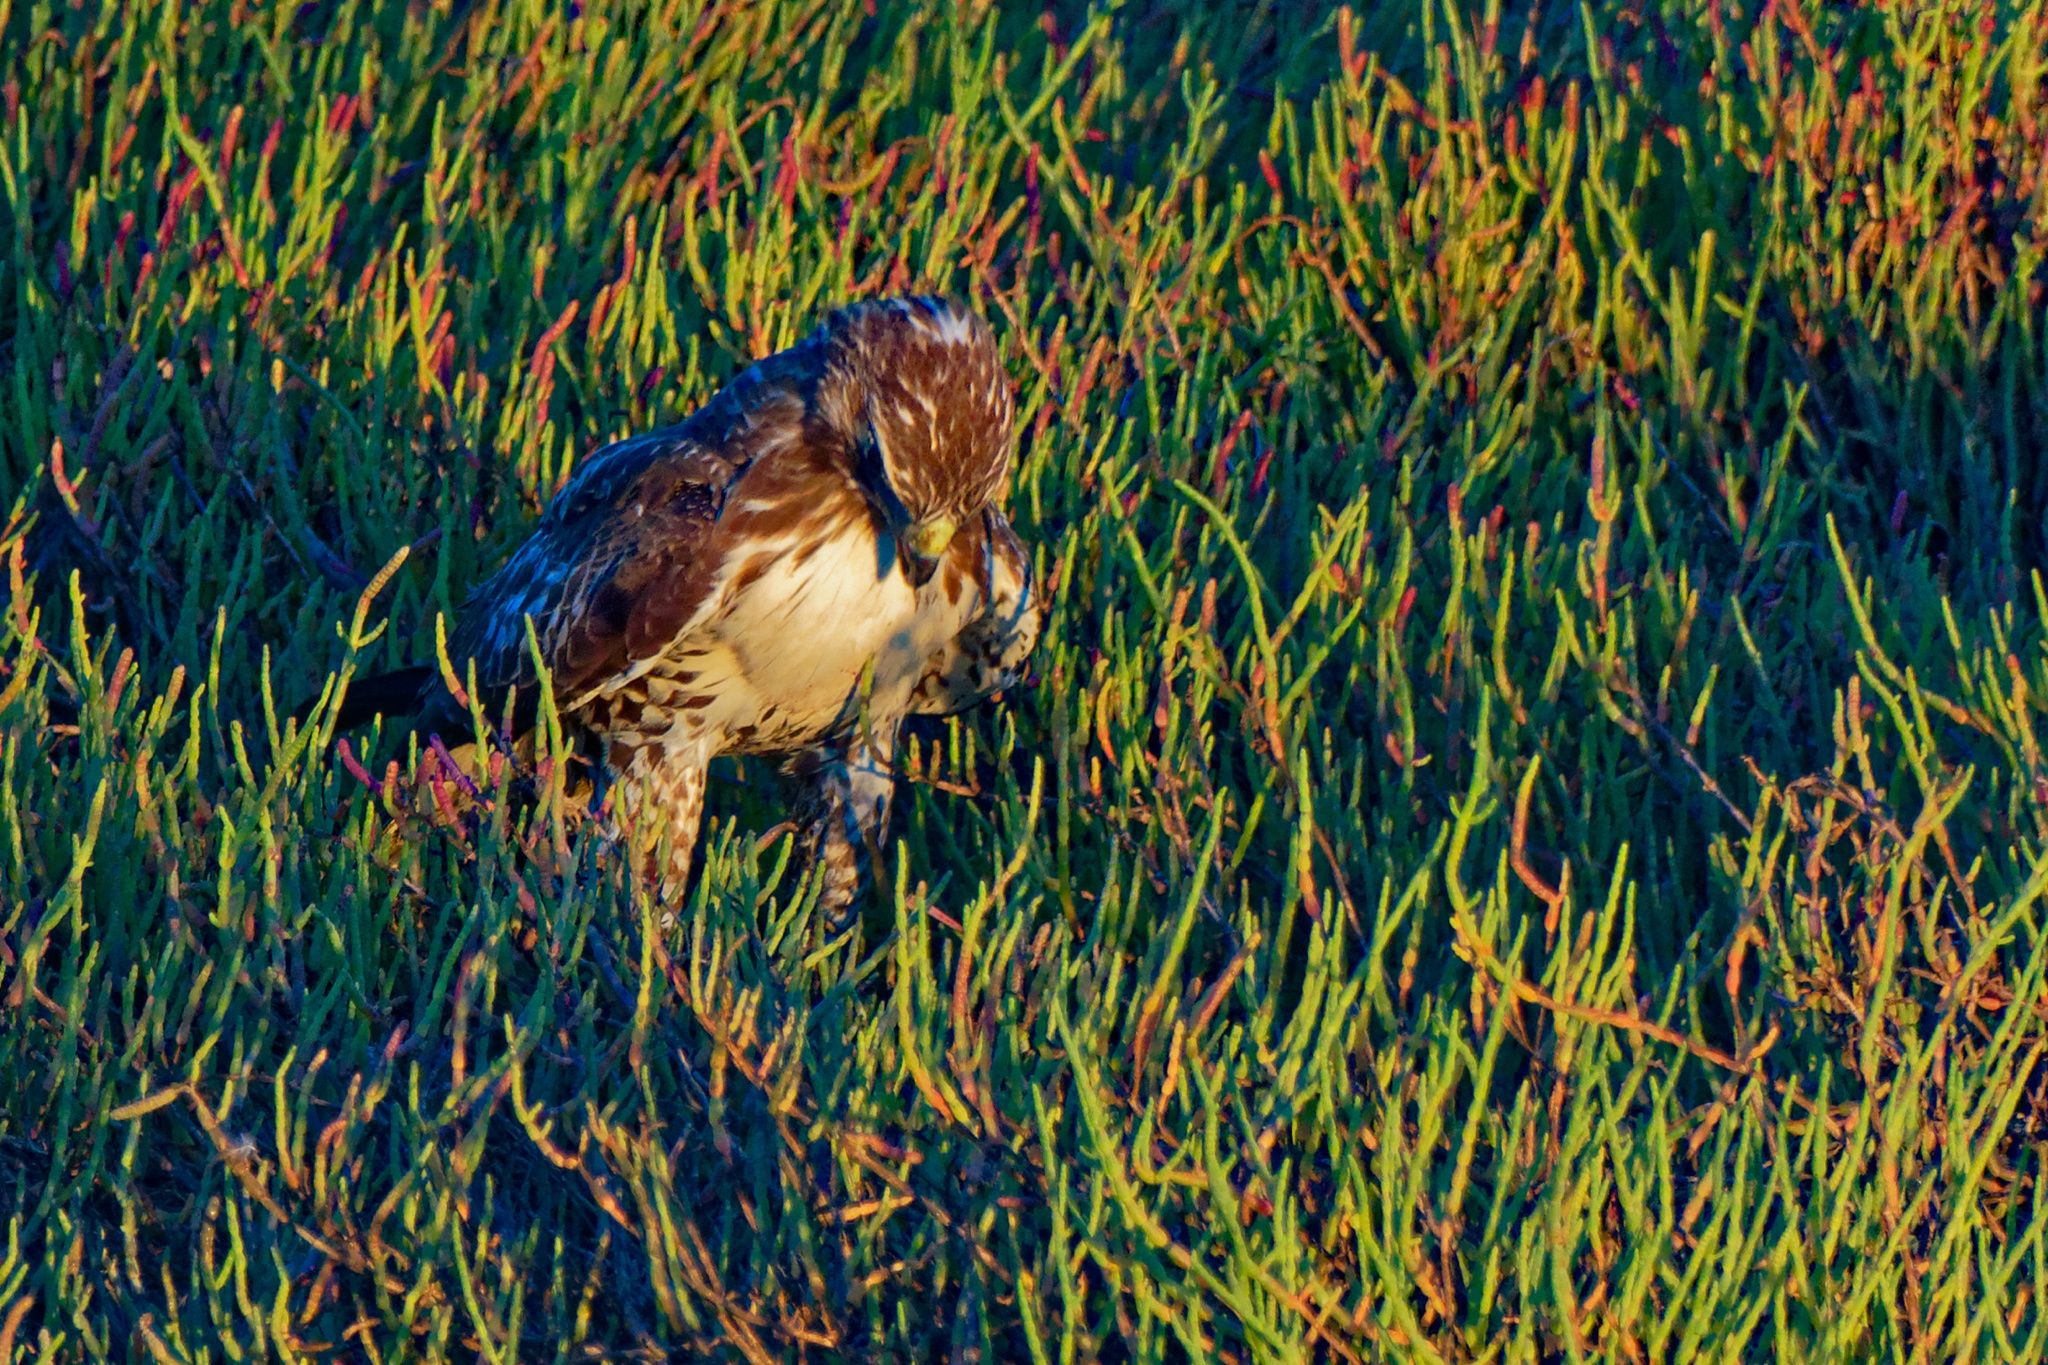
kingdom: Animalia
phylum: Chordata
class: Aves
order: Accipitriformes
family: Accipitridae
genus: Buteo
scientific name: Buteo jamaicensis
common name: Red-tailed hawk
